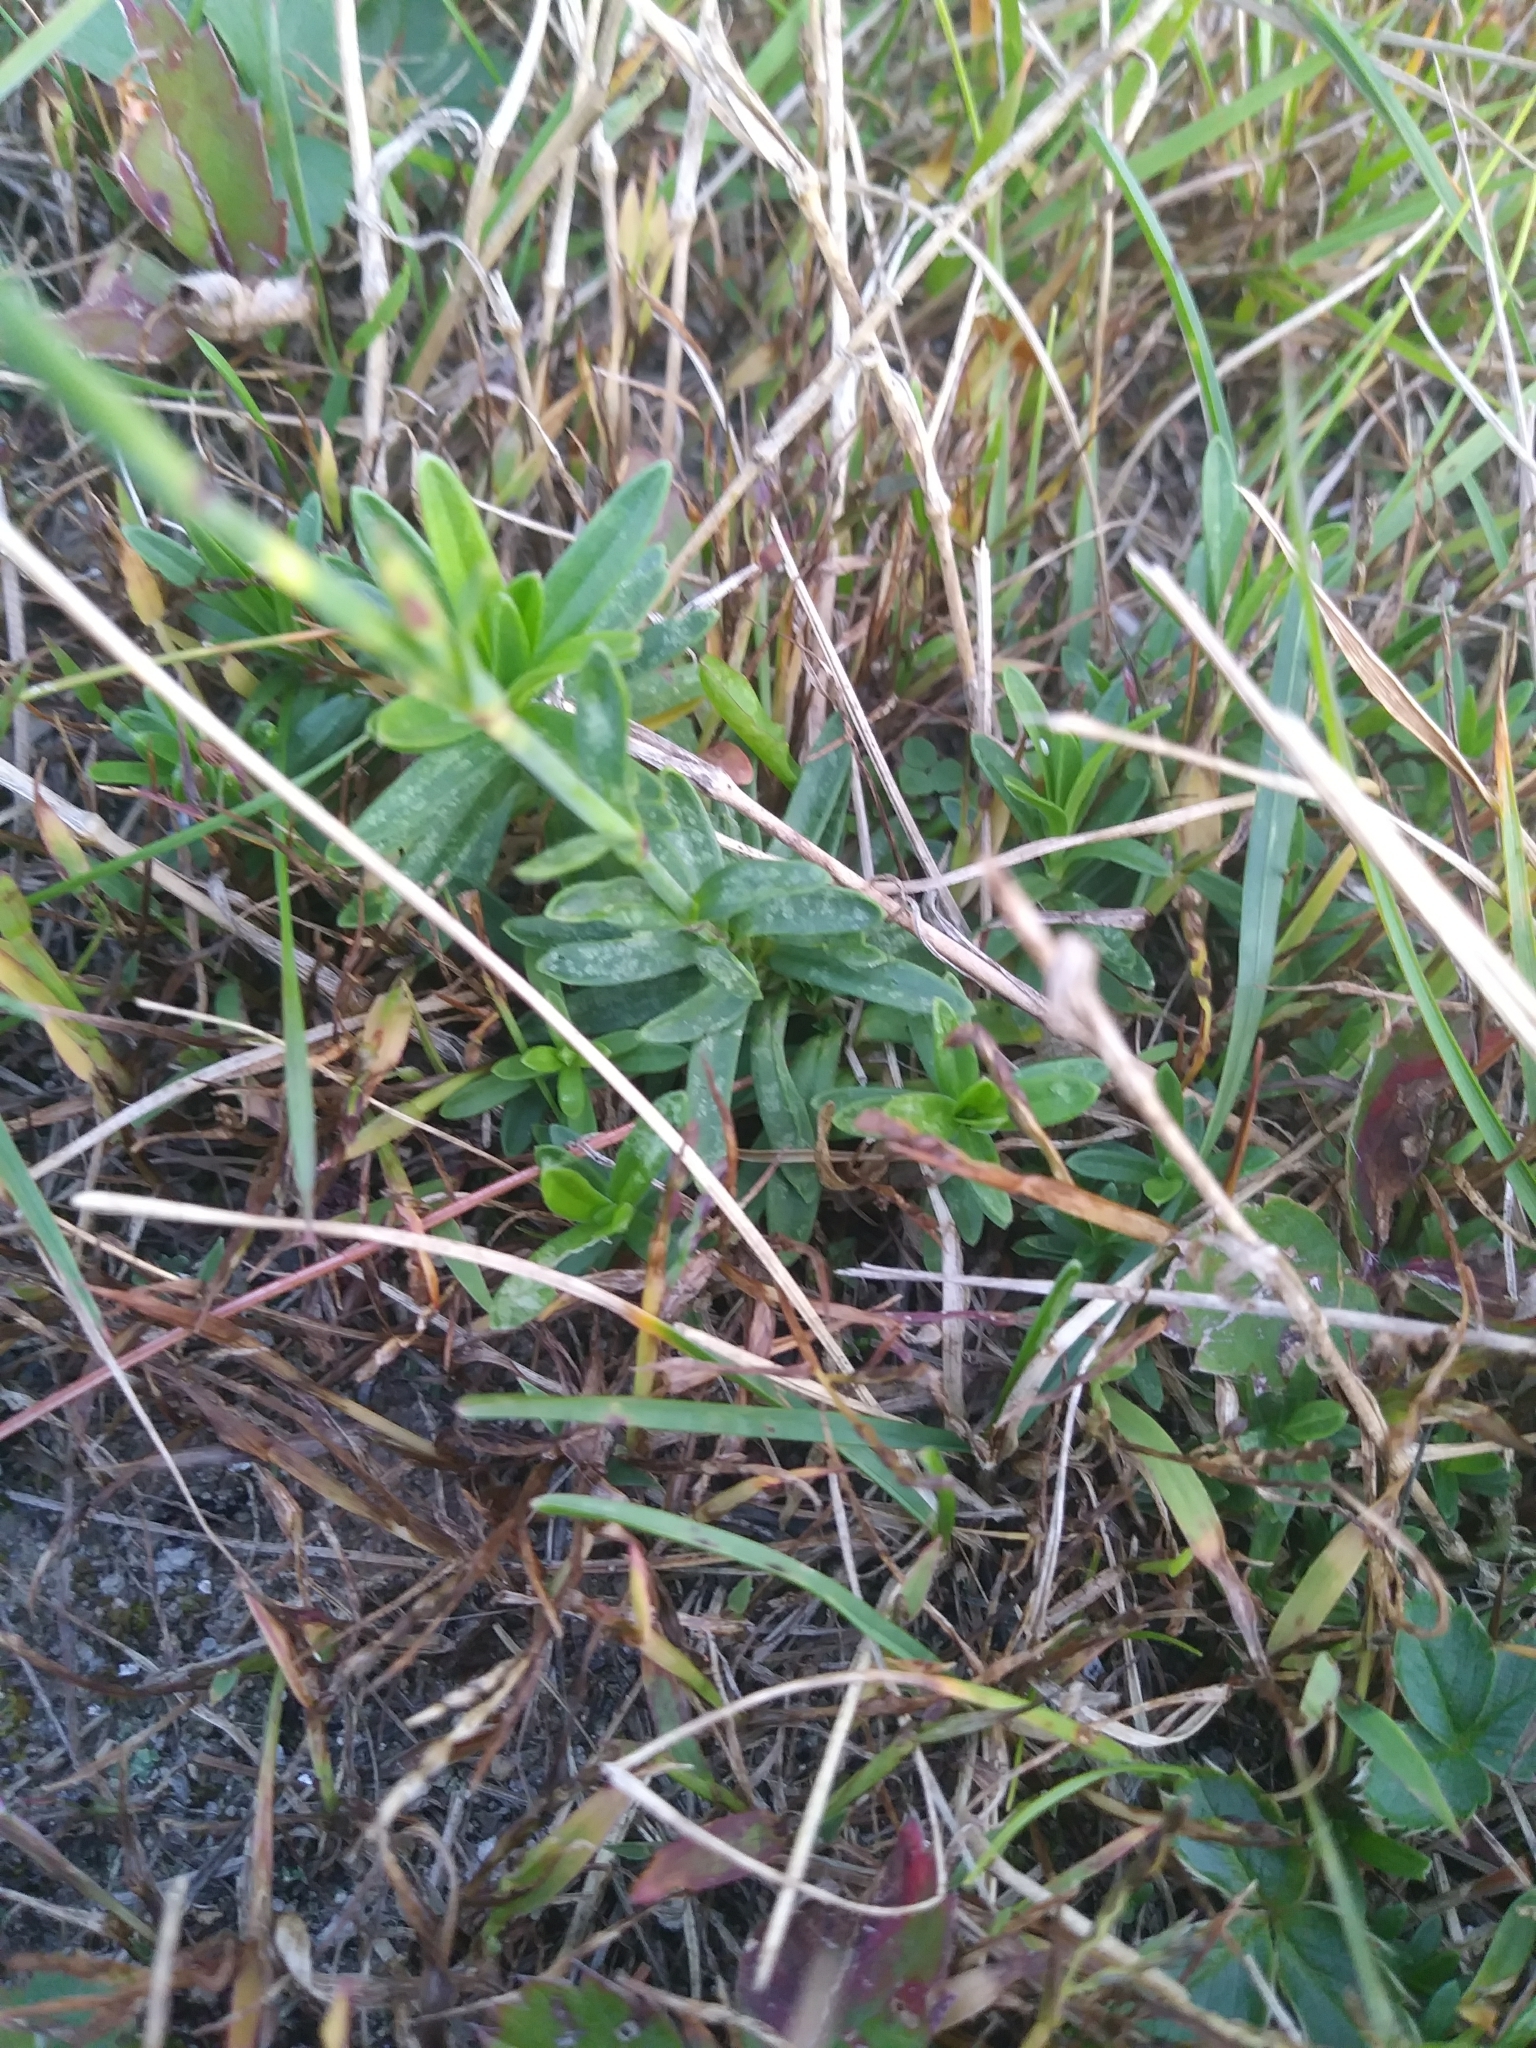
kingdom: Plantae
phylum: Tracheophyta
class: Magnoliopsida
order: Caryophyllales
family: Caryophyllaceae
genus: Dianthus
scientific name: Dianthus deltoides
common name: Maiden pink
